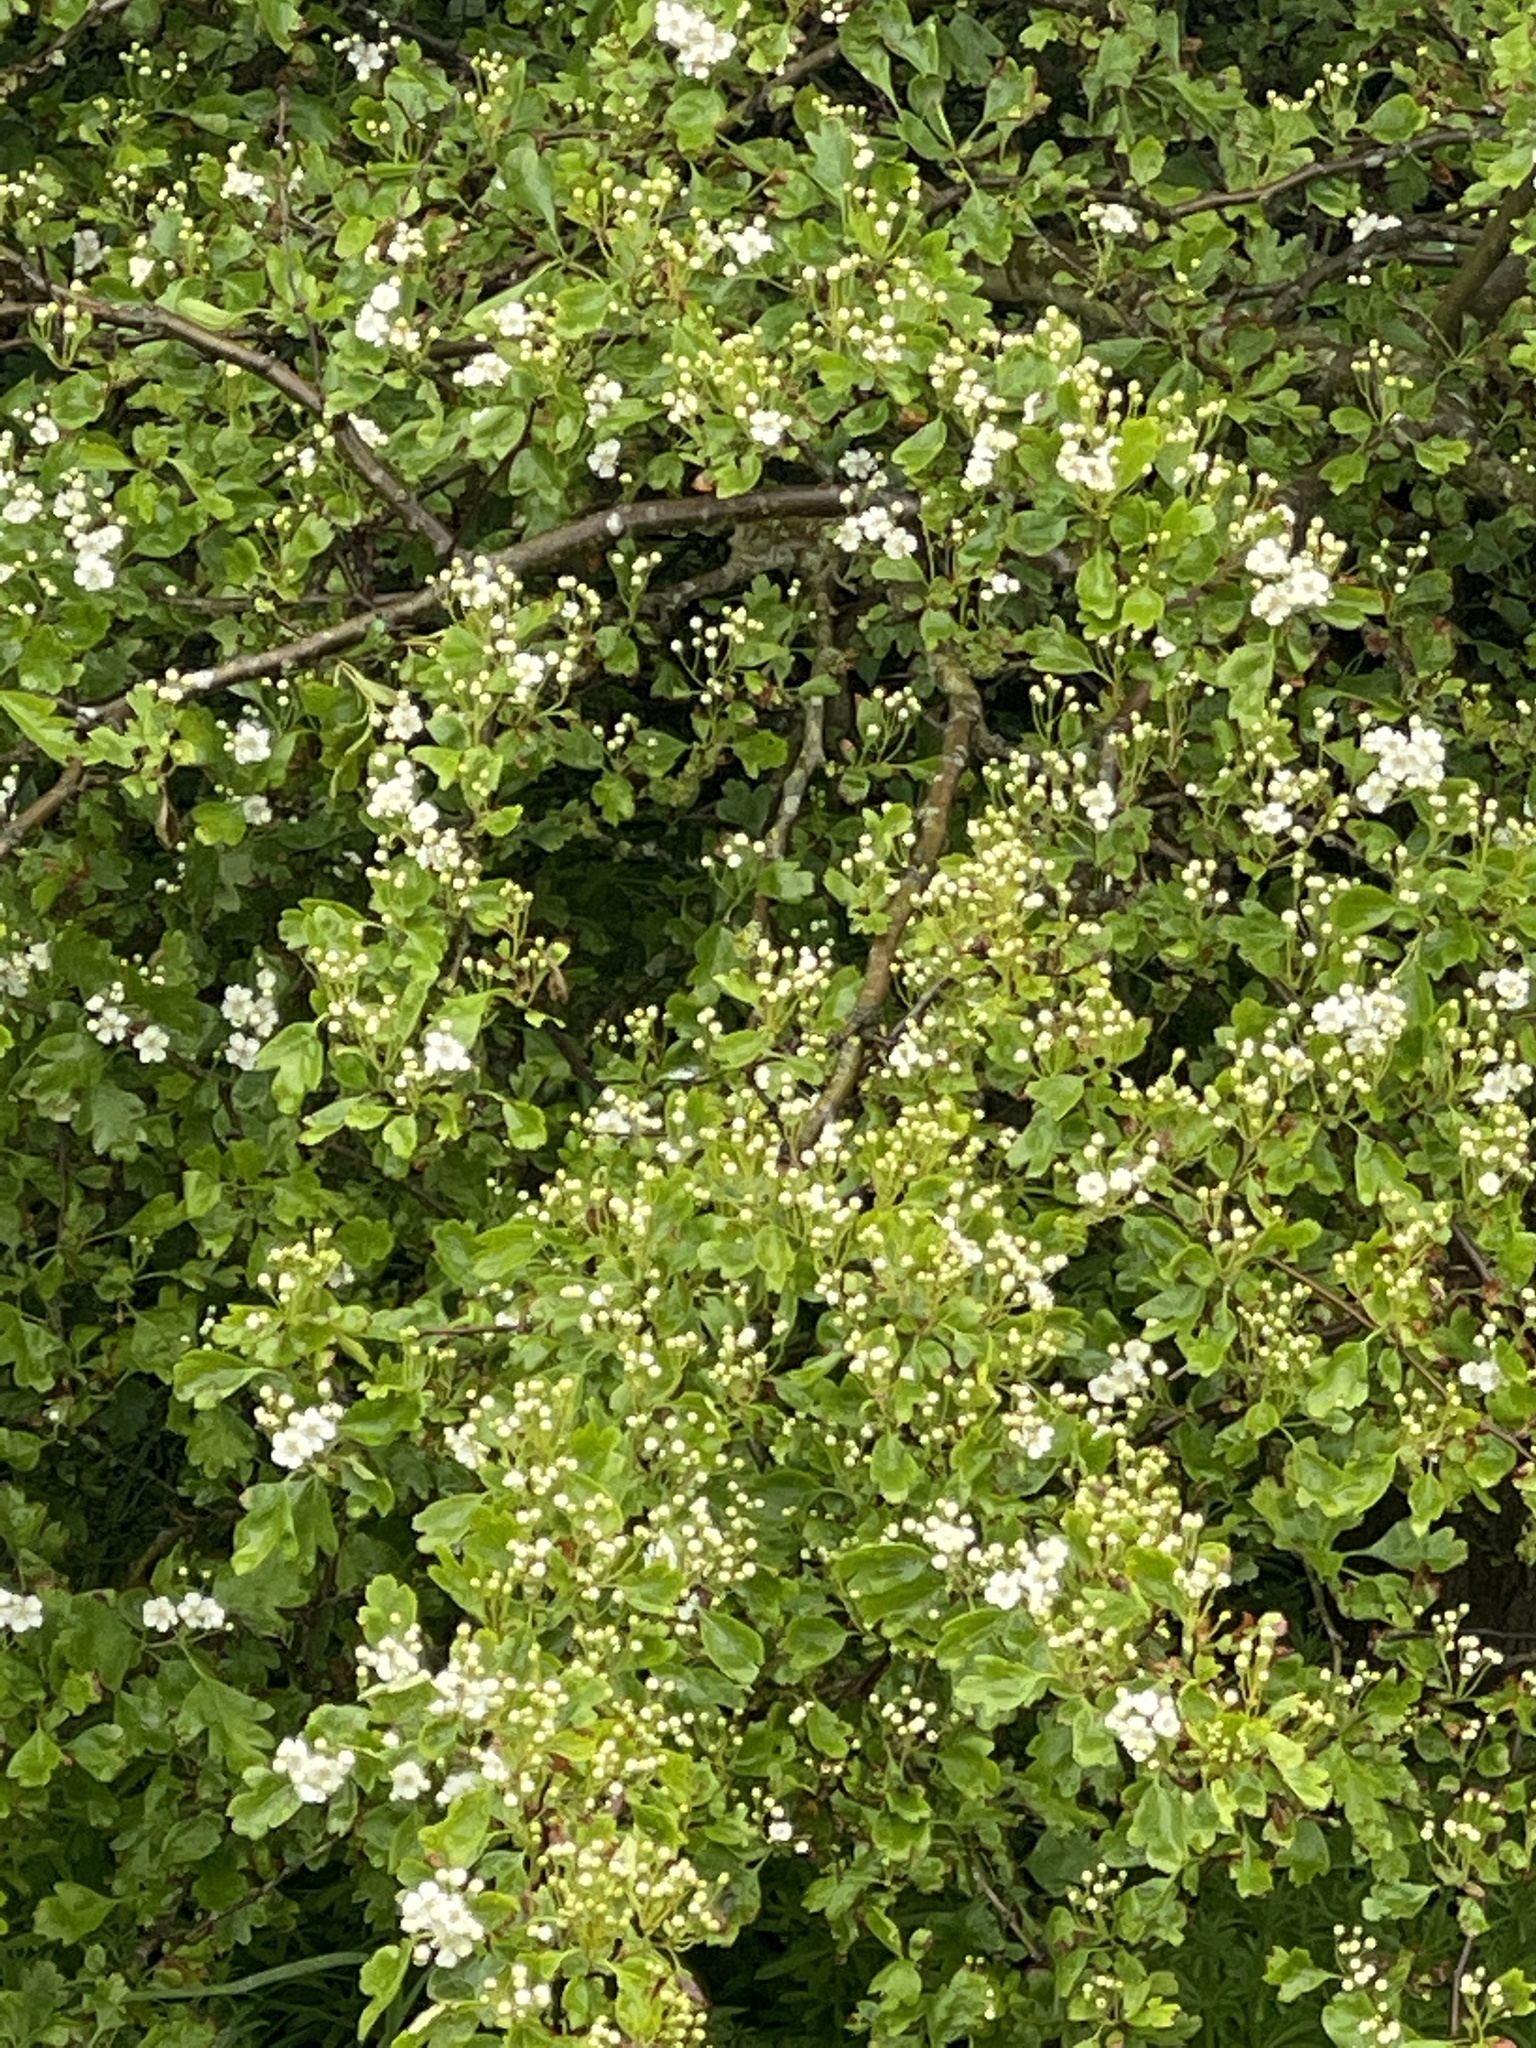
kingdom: Plantae
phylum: Tracheophyta
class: Magnoliopsida
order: Rosales
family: Rosaceae
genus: Crataegus
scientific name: Crataegus monogyna
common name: Hawthorn
